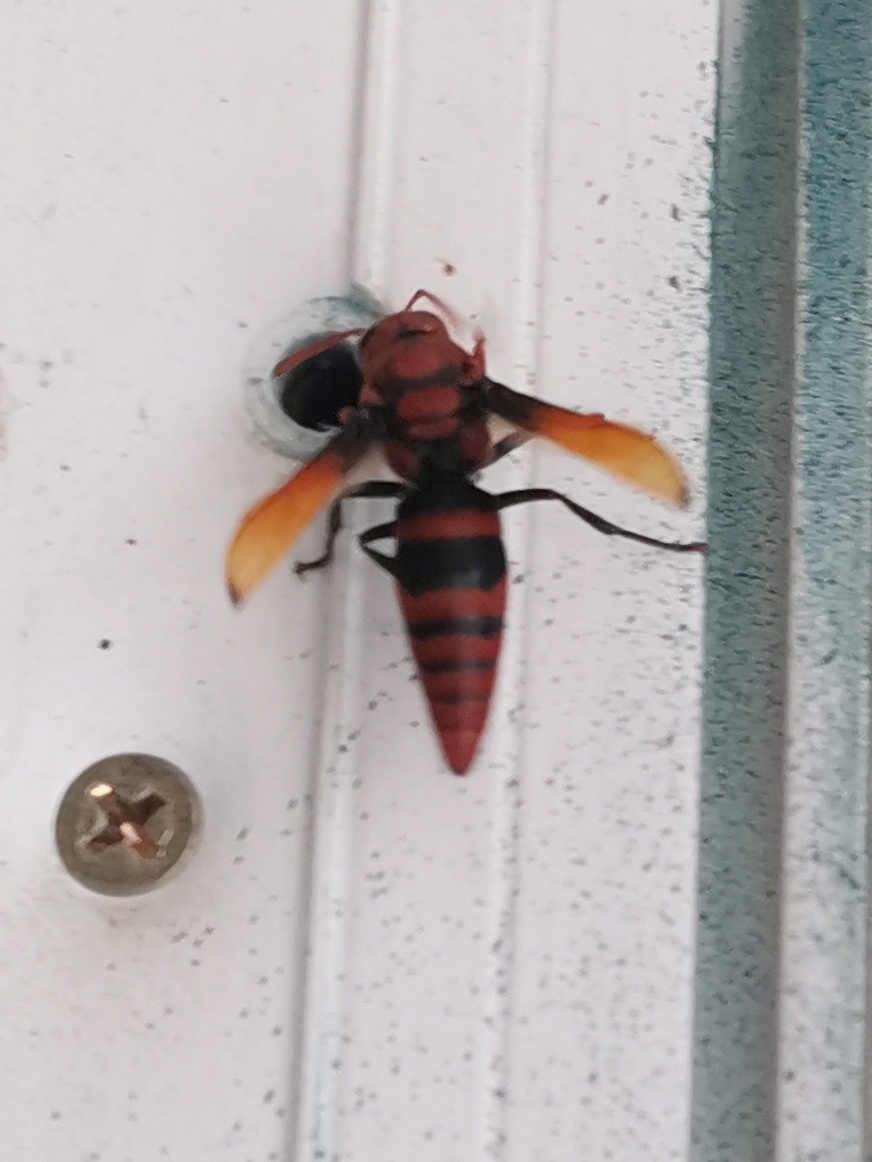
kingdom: Animalia
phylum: Arthropoda
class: Insecta
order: Hymenoptera
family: Eumenidae
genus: Rhynchium
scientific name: Rhynchium brunneum
